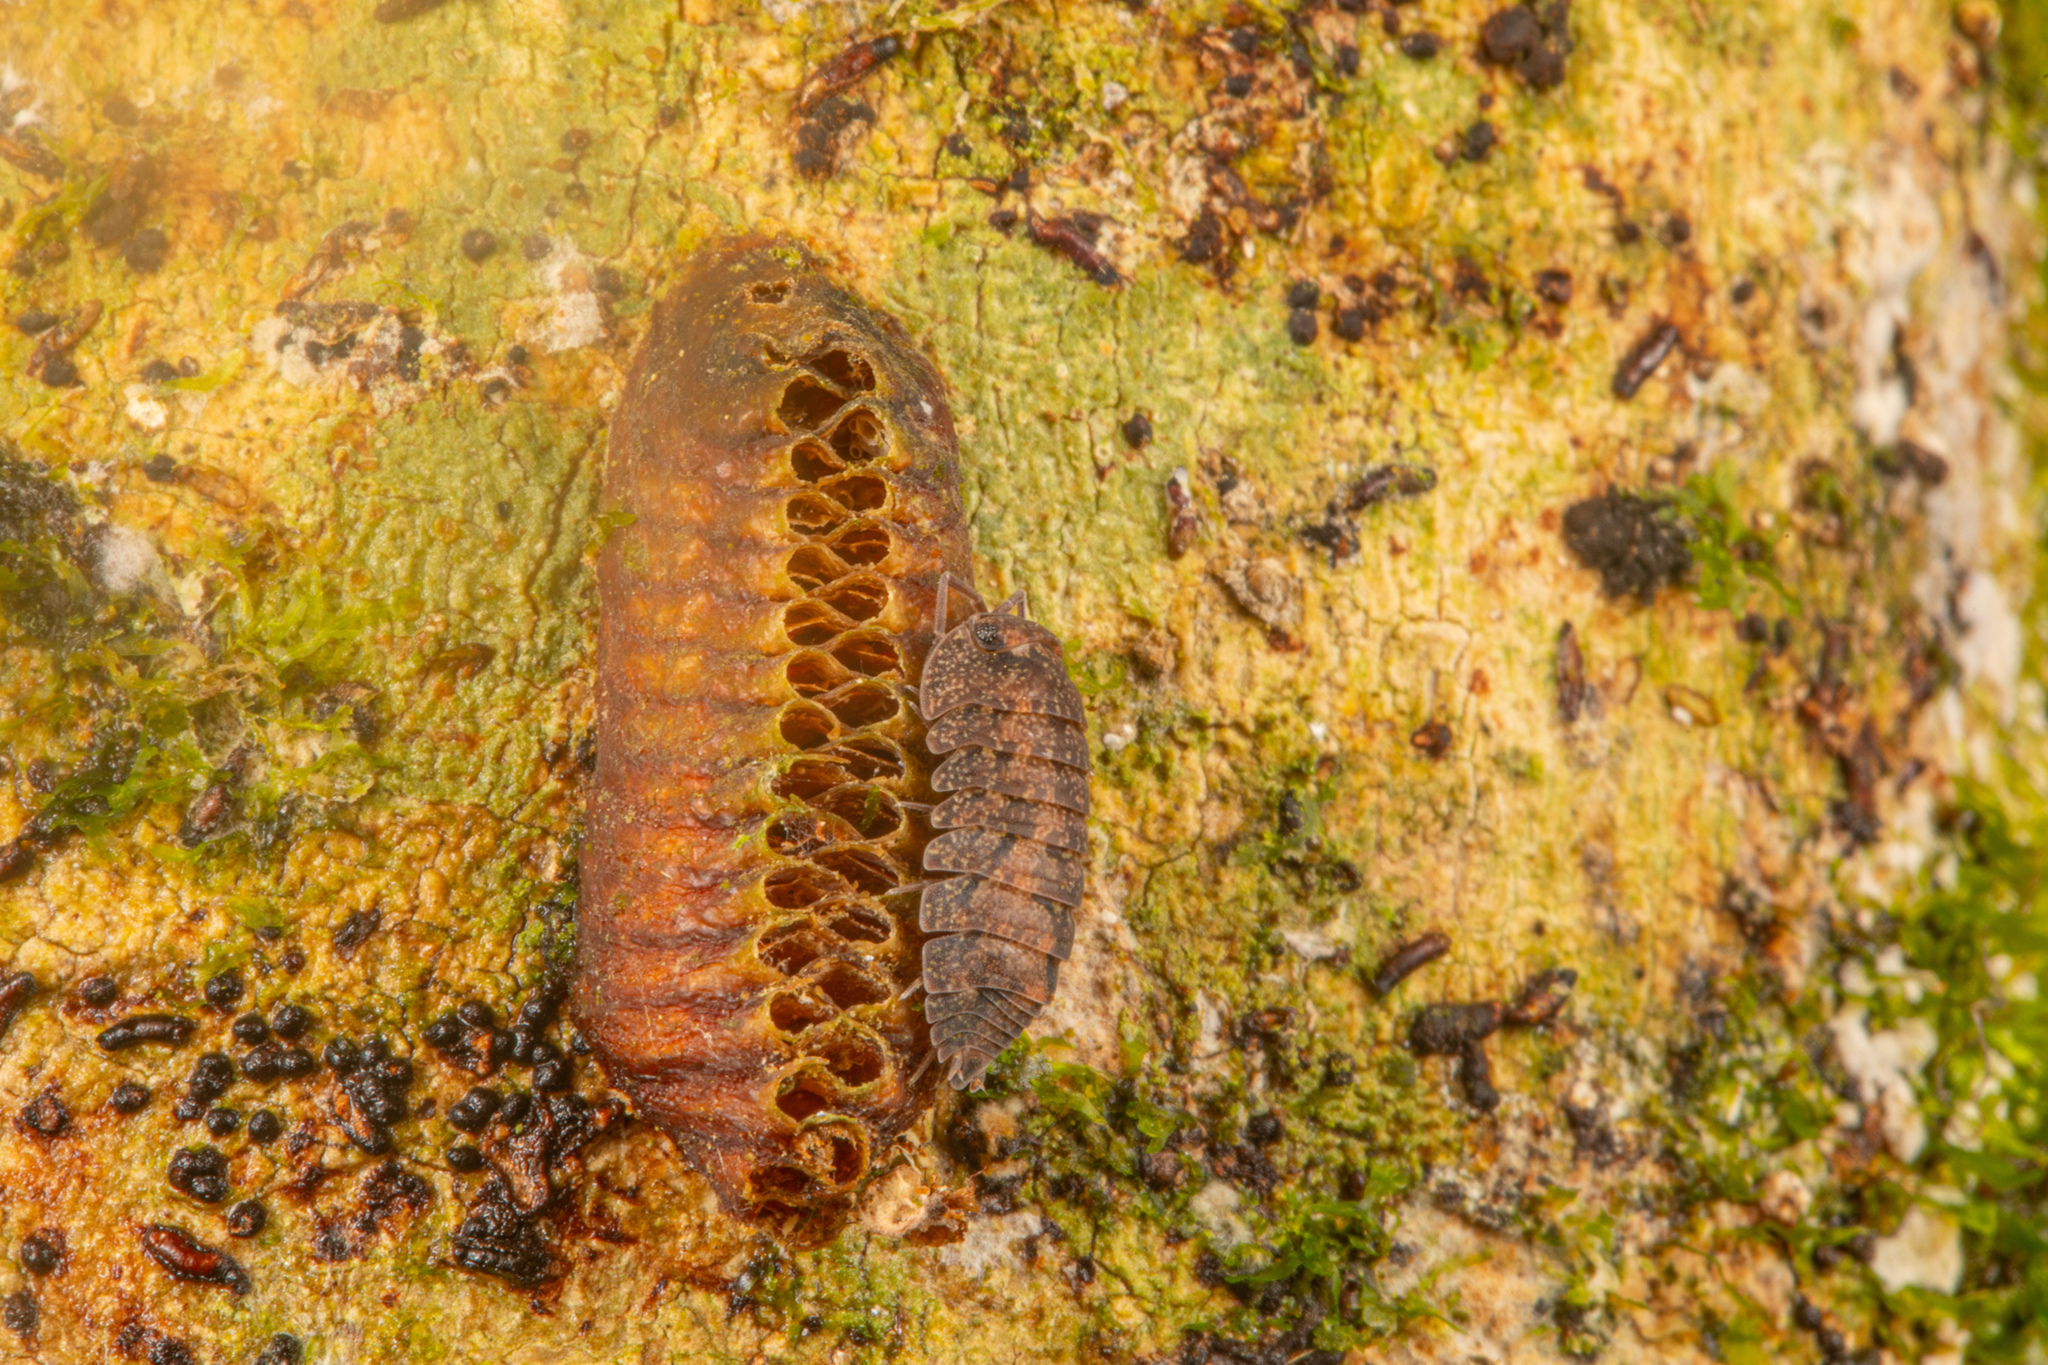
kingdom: Animalia
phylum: Arthropoda
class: Malacostraca
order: Isopoda
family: Armadillidae
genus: Cubaris
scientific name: Cubaris tarangensis
